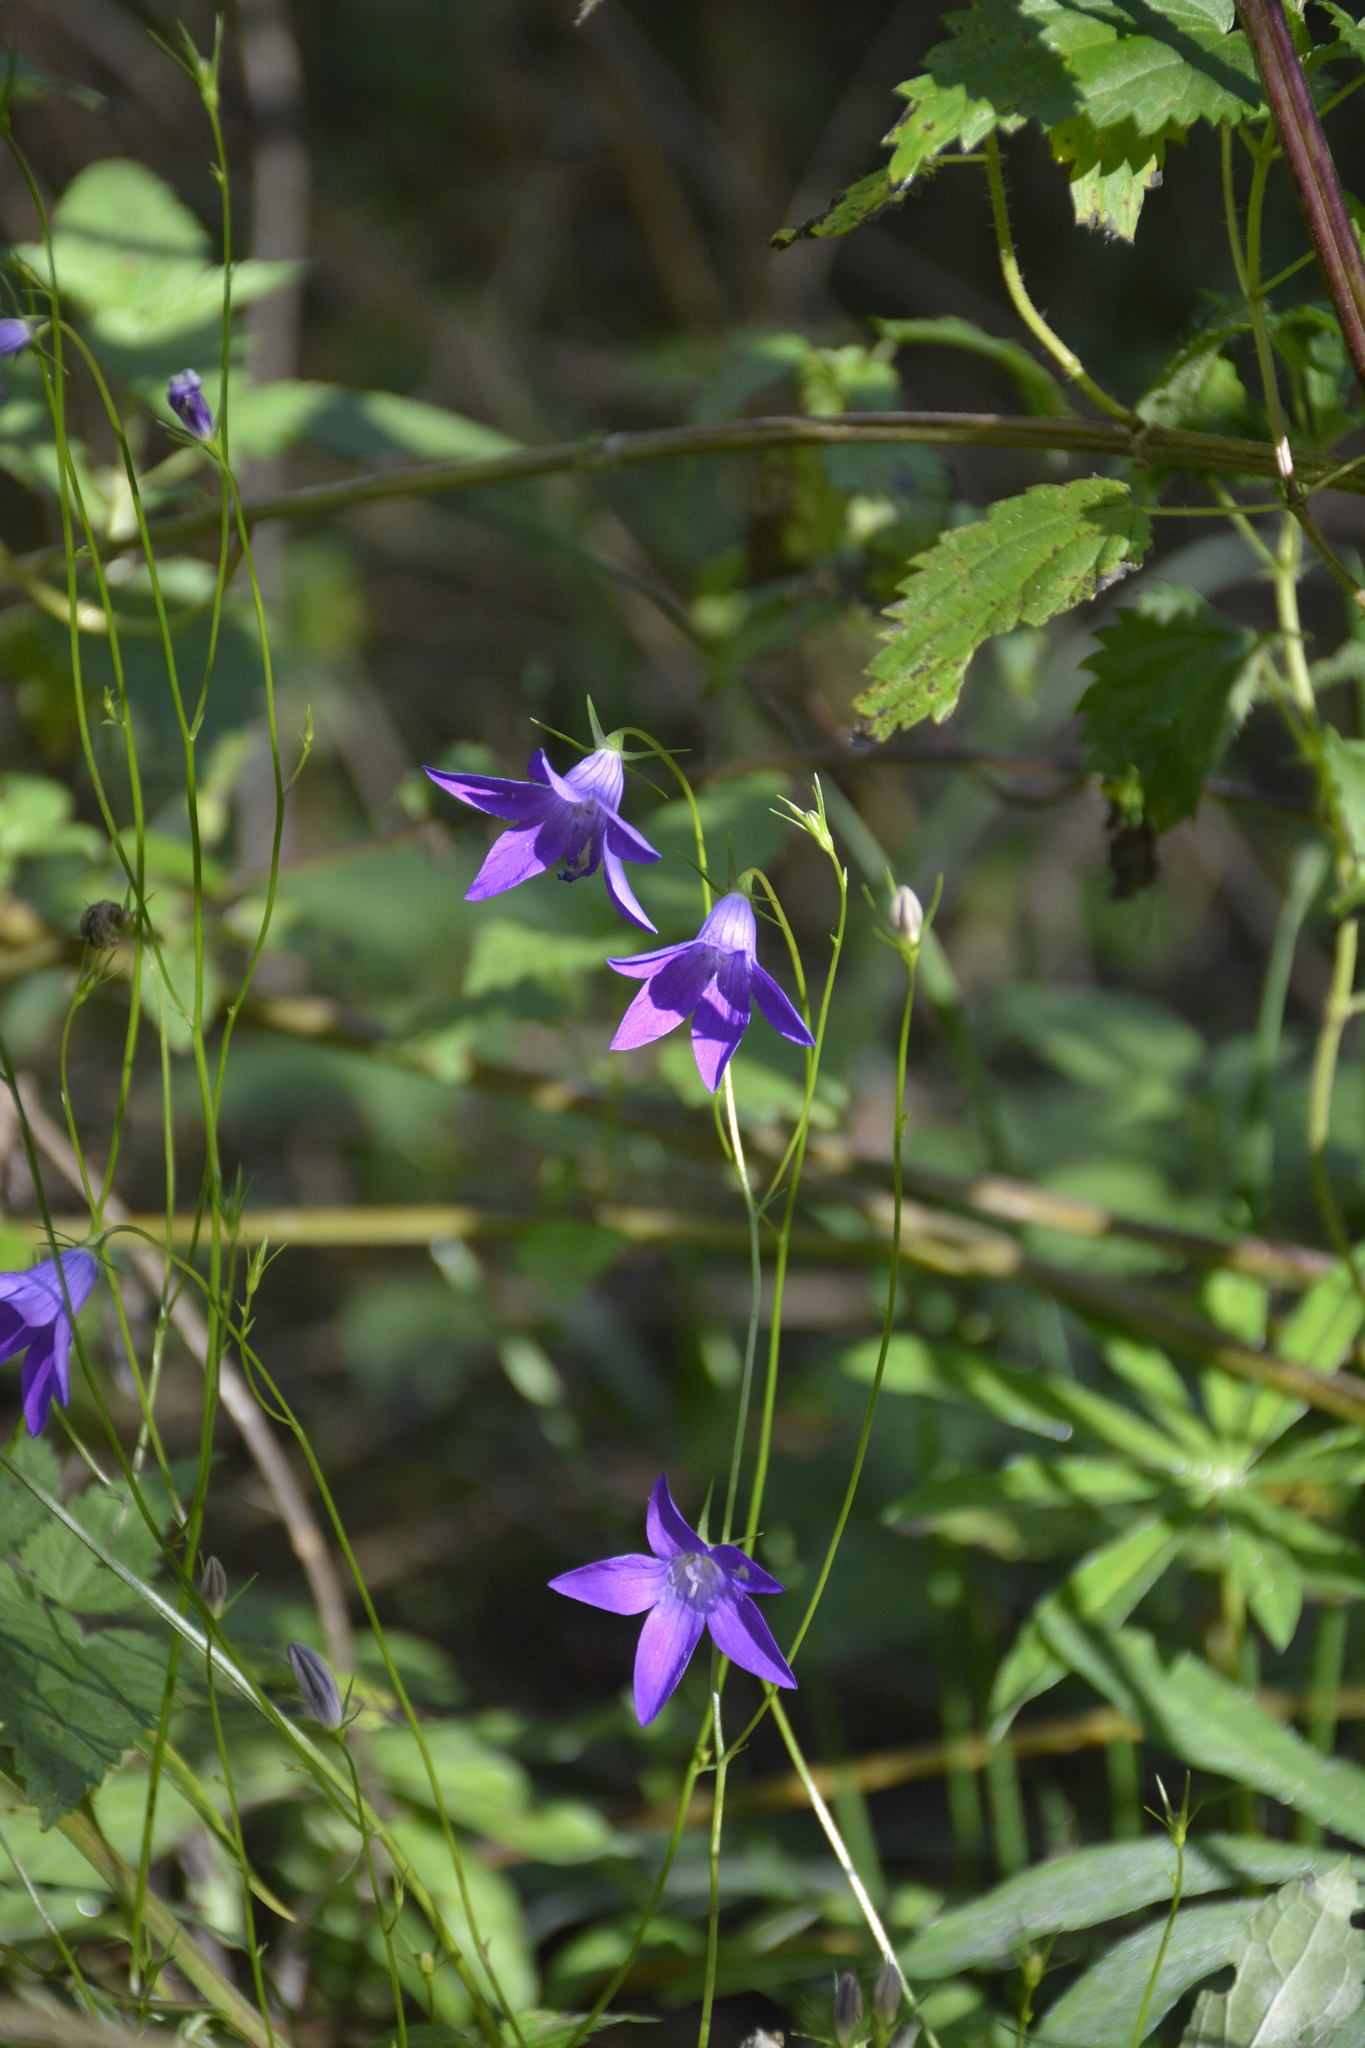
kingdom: Plantae
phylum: Tracheophyta
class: Magnoliopsida
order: Asterales
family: Campanulaceae
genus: Campanula
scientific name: Campanula patula
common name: Spreading bellflower
